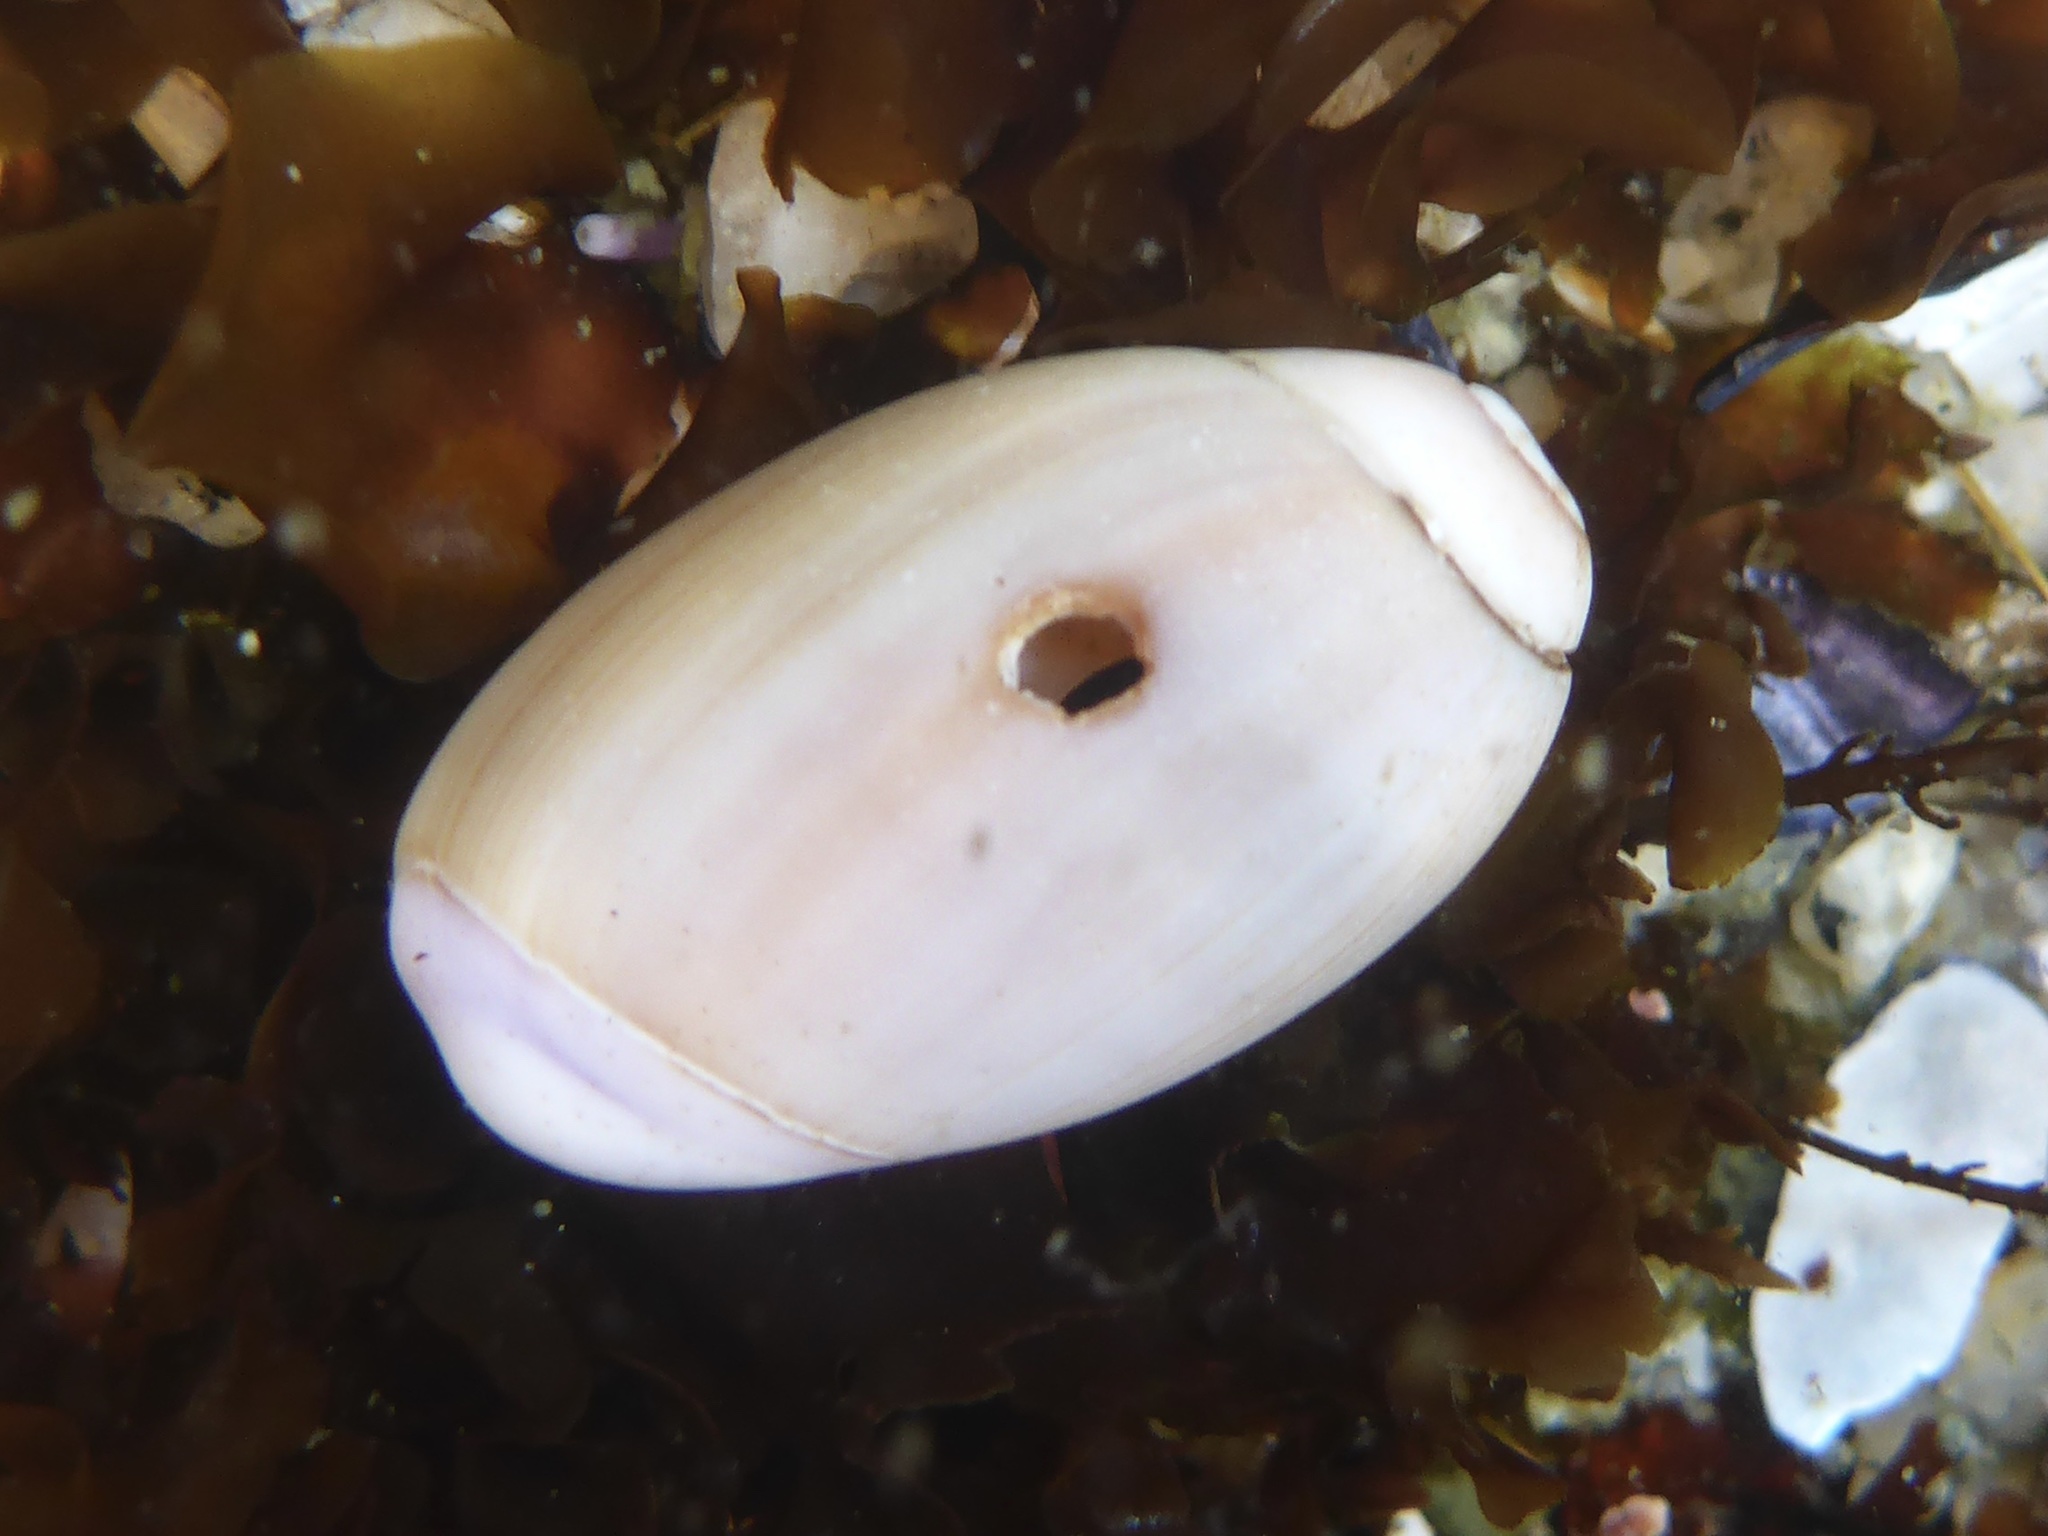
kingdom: Animalia
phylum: Mollusca
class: Gastropoda
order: Neogastropoda
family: Olividae
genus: Callianax
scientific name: Callianax biplicata
